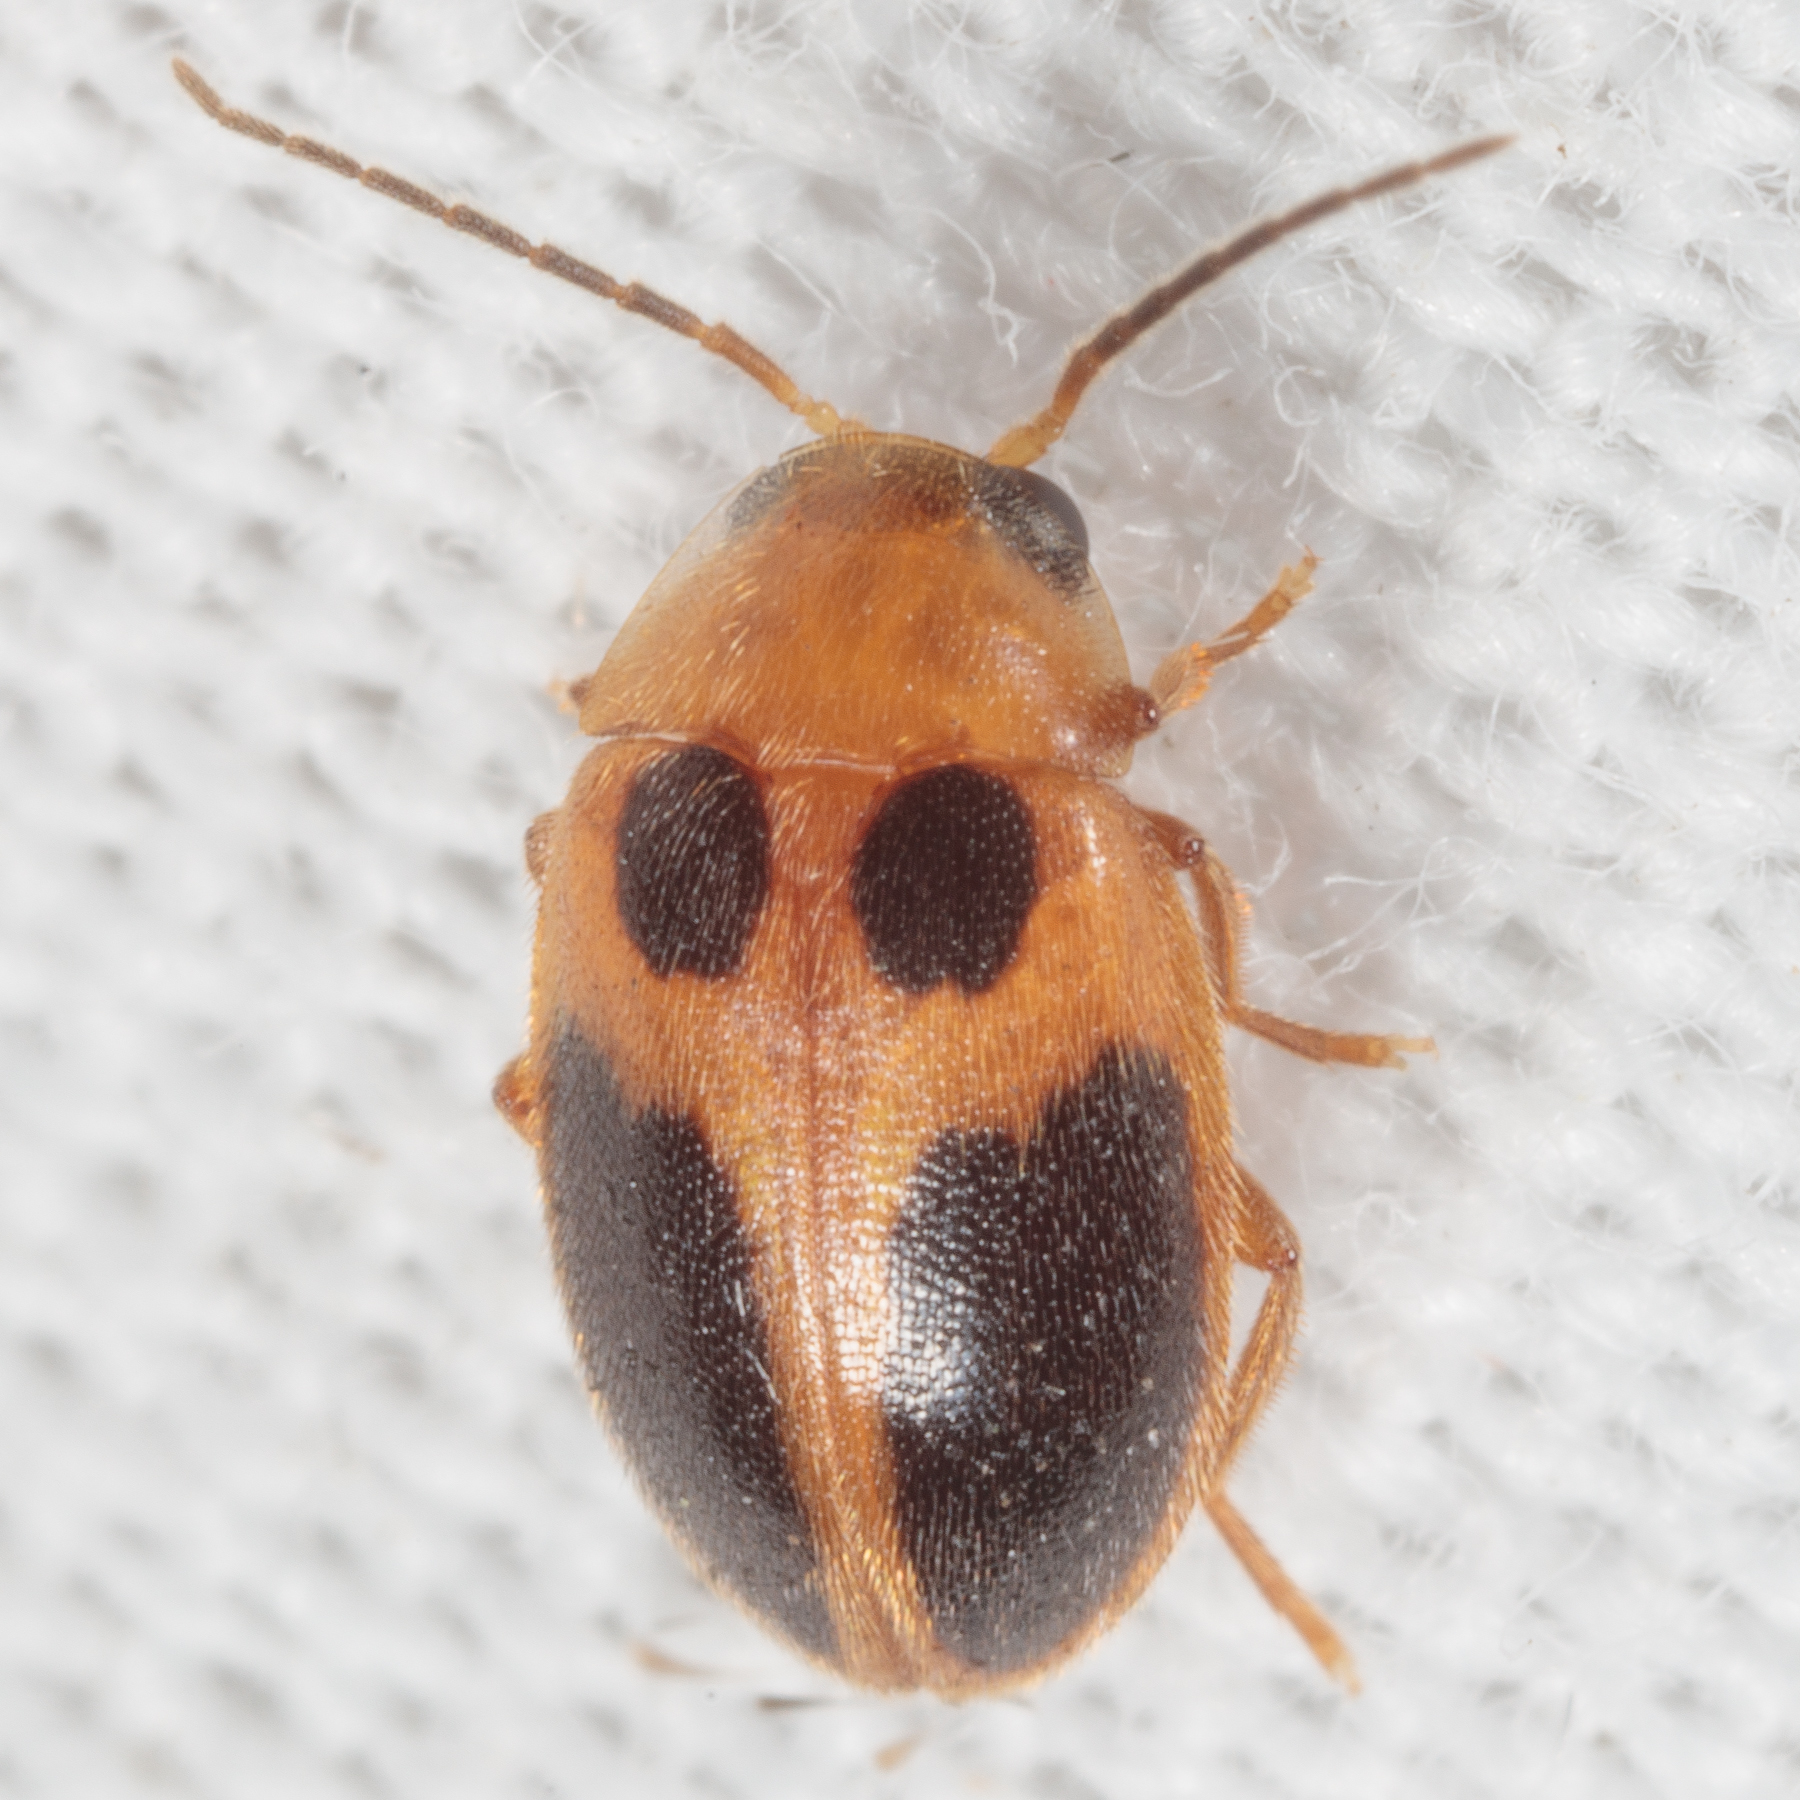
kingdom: Animalia
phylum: Arthropoda
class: Insecta
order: Coleoptera
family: Scirtidae
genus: Sacodes
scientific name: Sacodes pulchella
